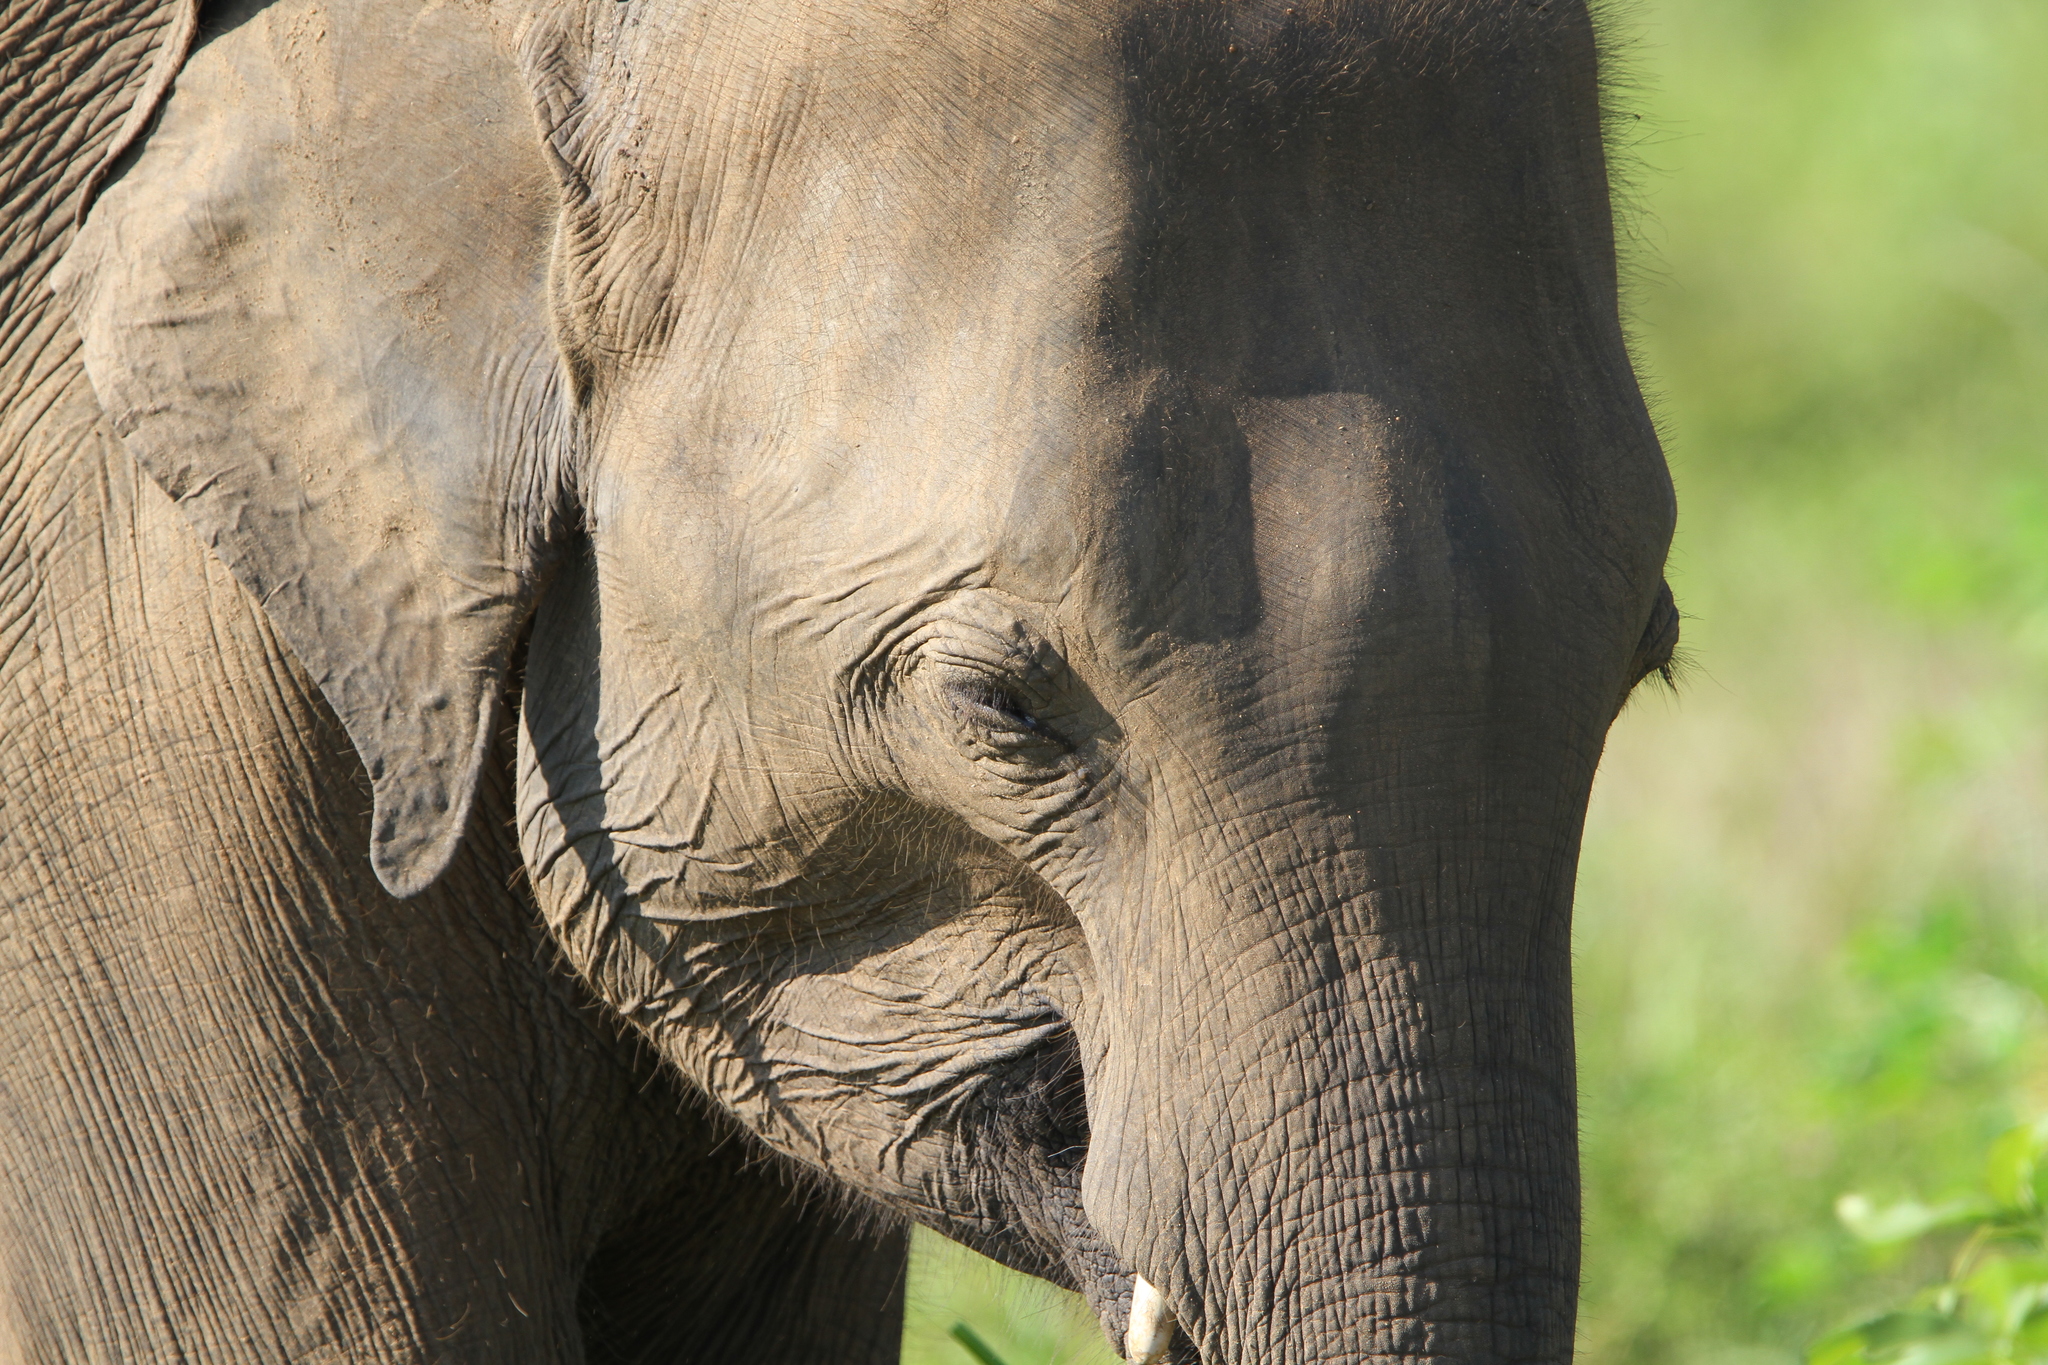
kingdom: Animalia
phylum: Chordata
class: Mammalia
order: Proboscidea
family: Elephantidae
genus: Elephas
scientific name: Elephas maximus
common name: Asian elephant
